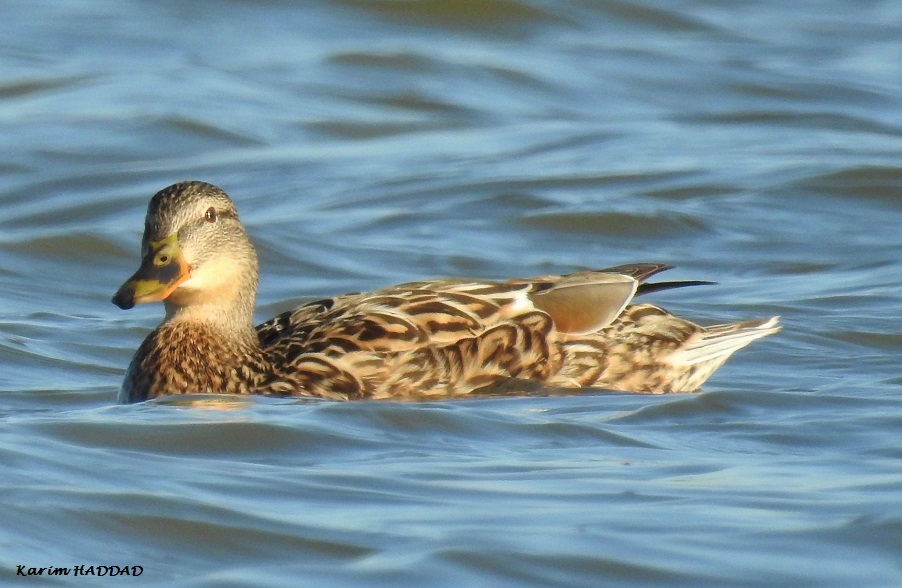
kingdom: Animalia
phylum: Chordata
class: Aves
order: Anseriformes
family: Anatidae
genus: Anas
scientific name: Anas platyrhynchos
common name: Mallard
